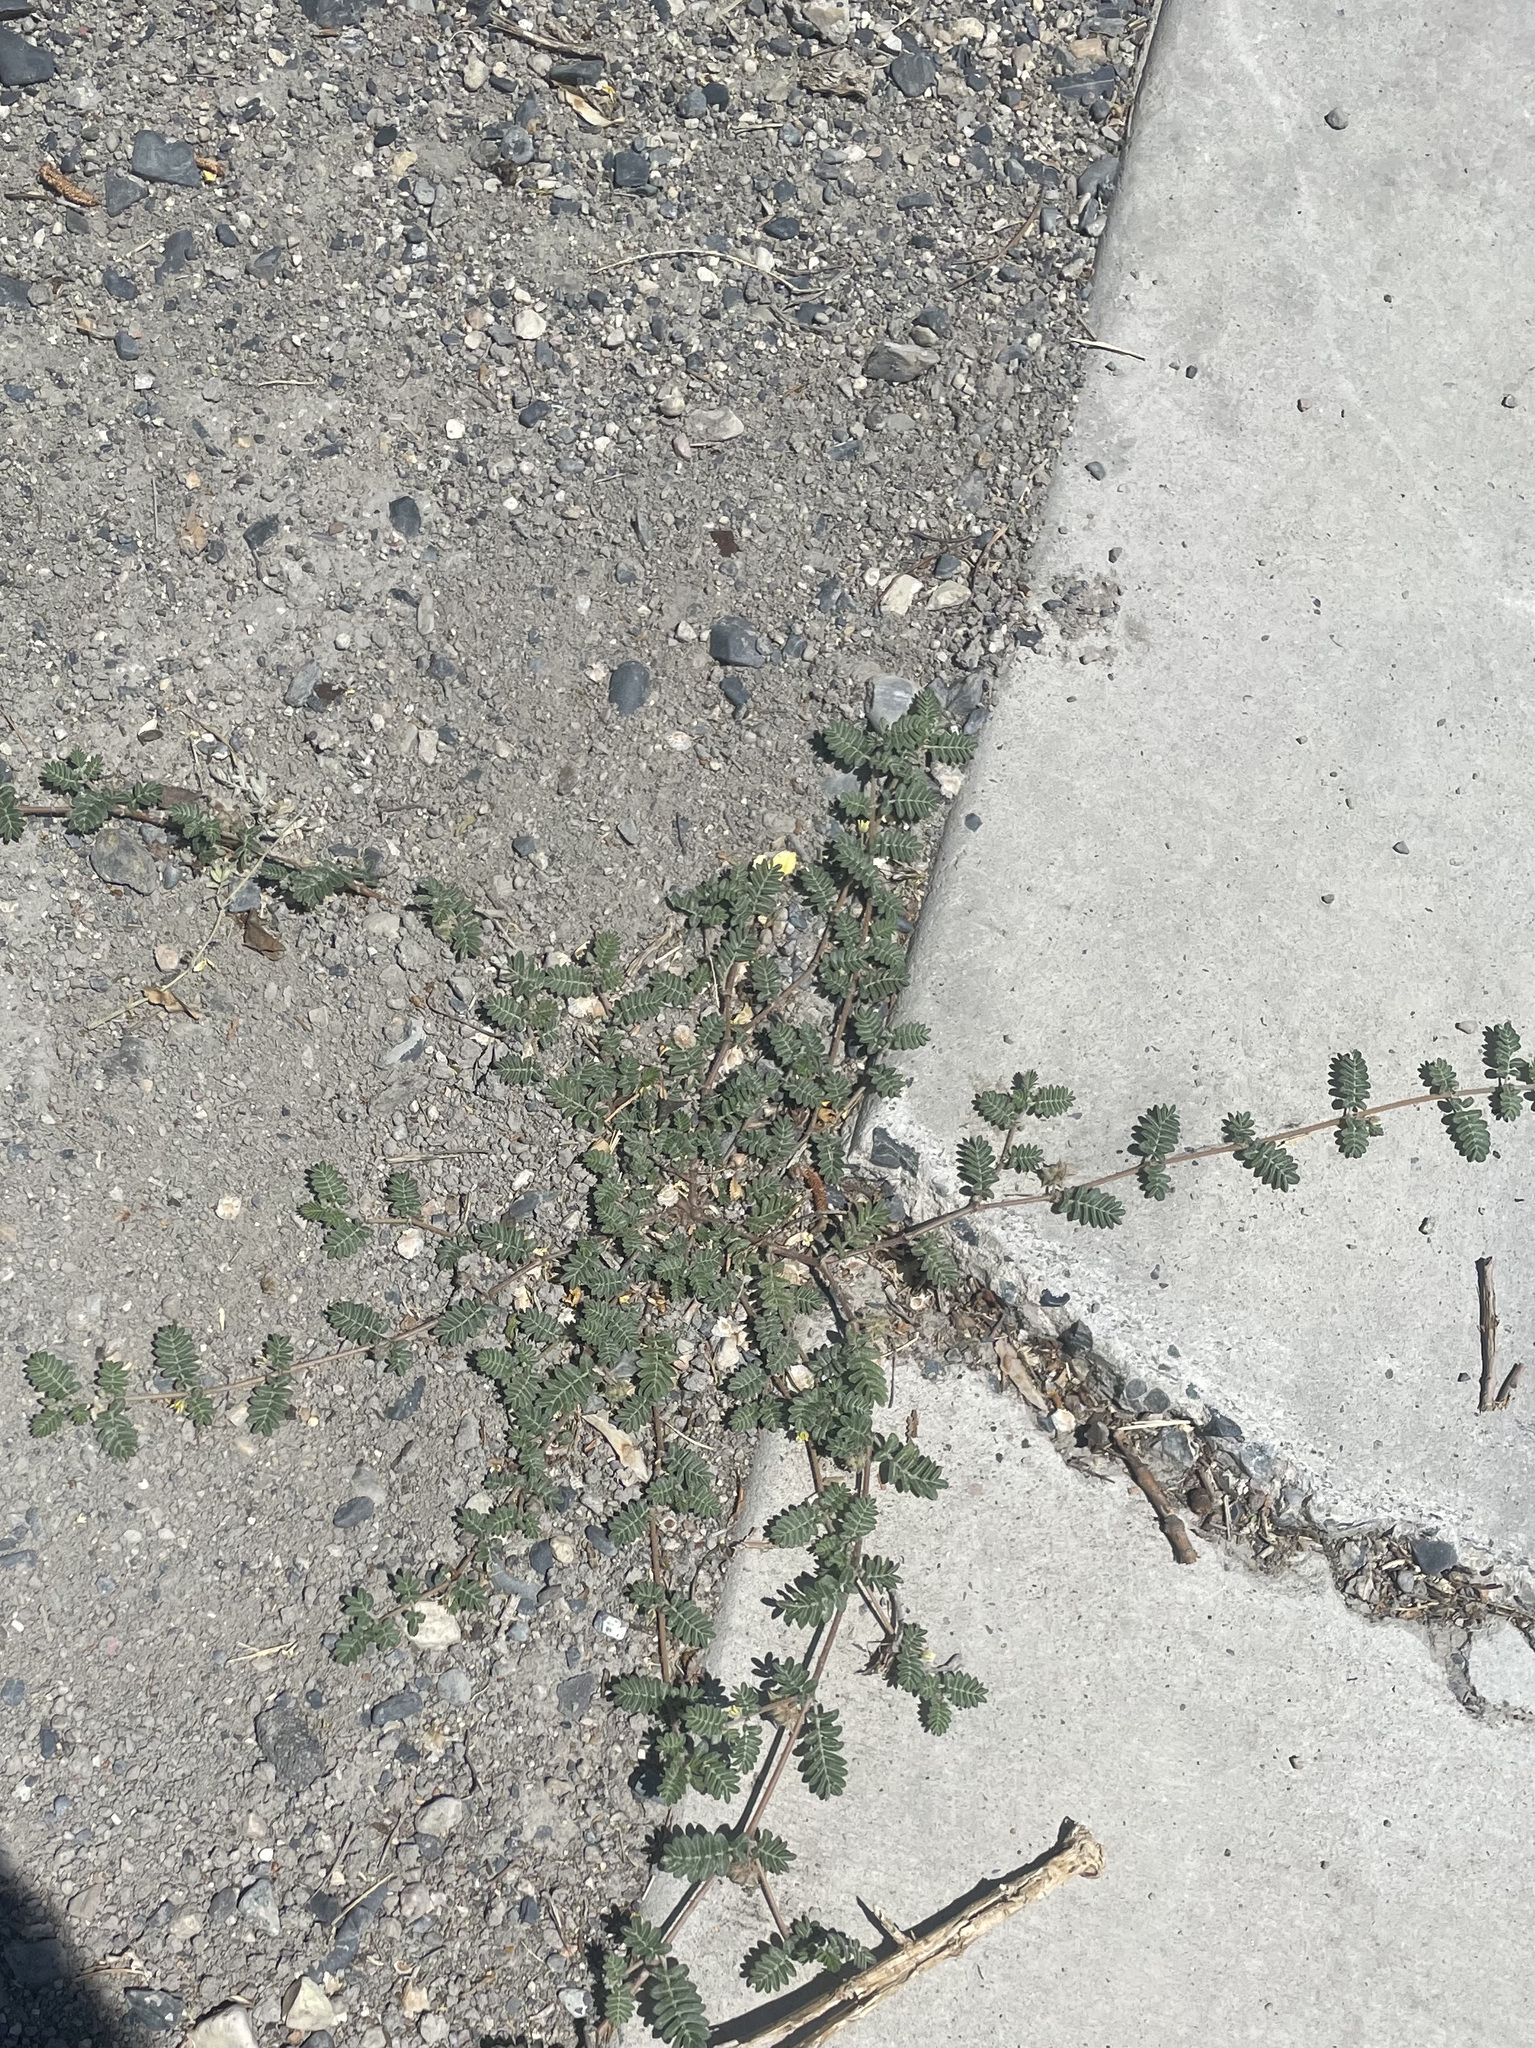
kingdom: Plantae
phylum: Tracheophyta
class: Magnoliopsida
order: Zygophyllales
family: Zygophyllaceae
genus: Tribulus
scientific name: Tribulus terrestris
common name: Puncturevine
